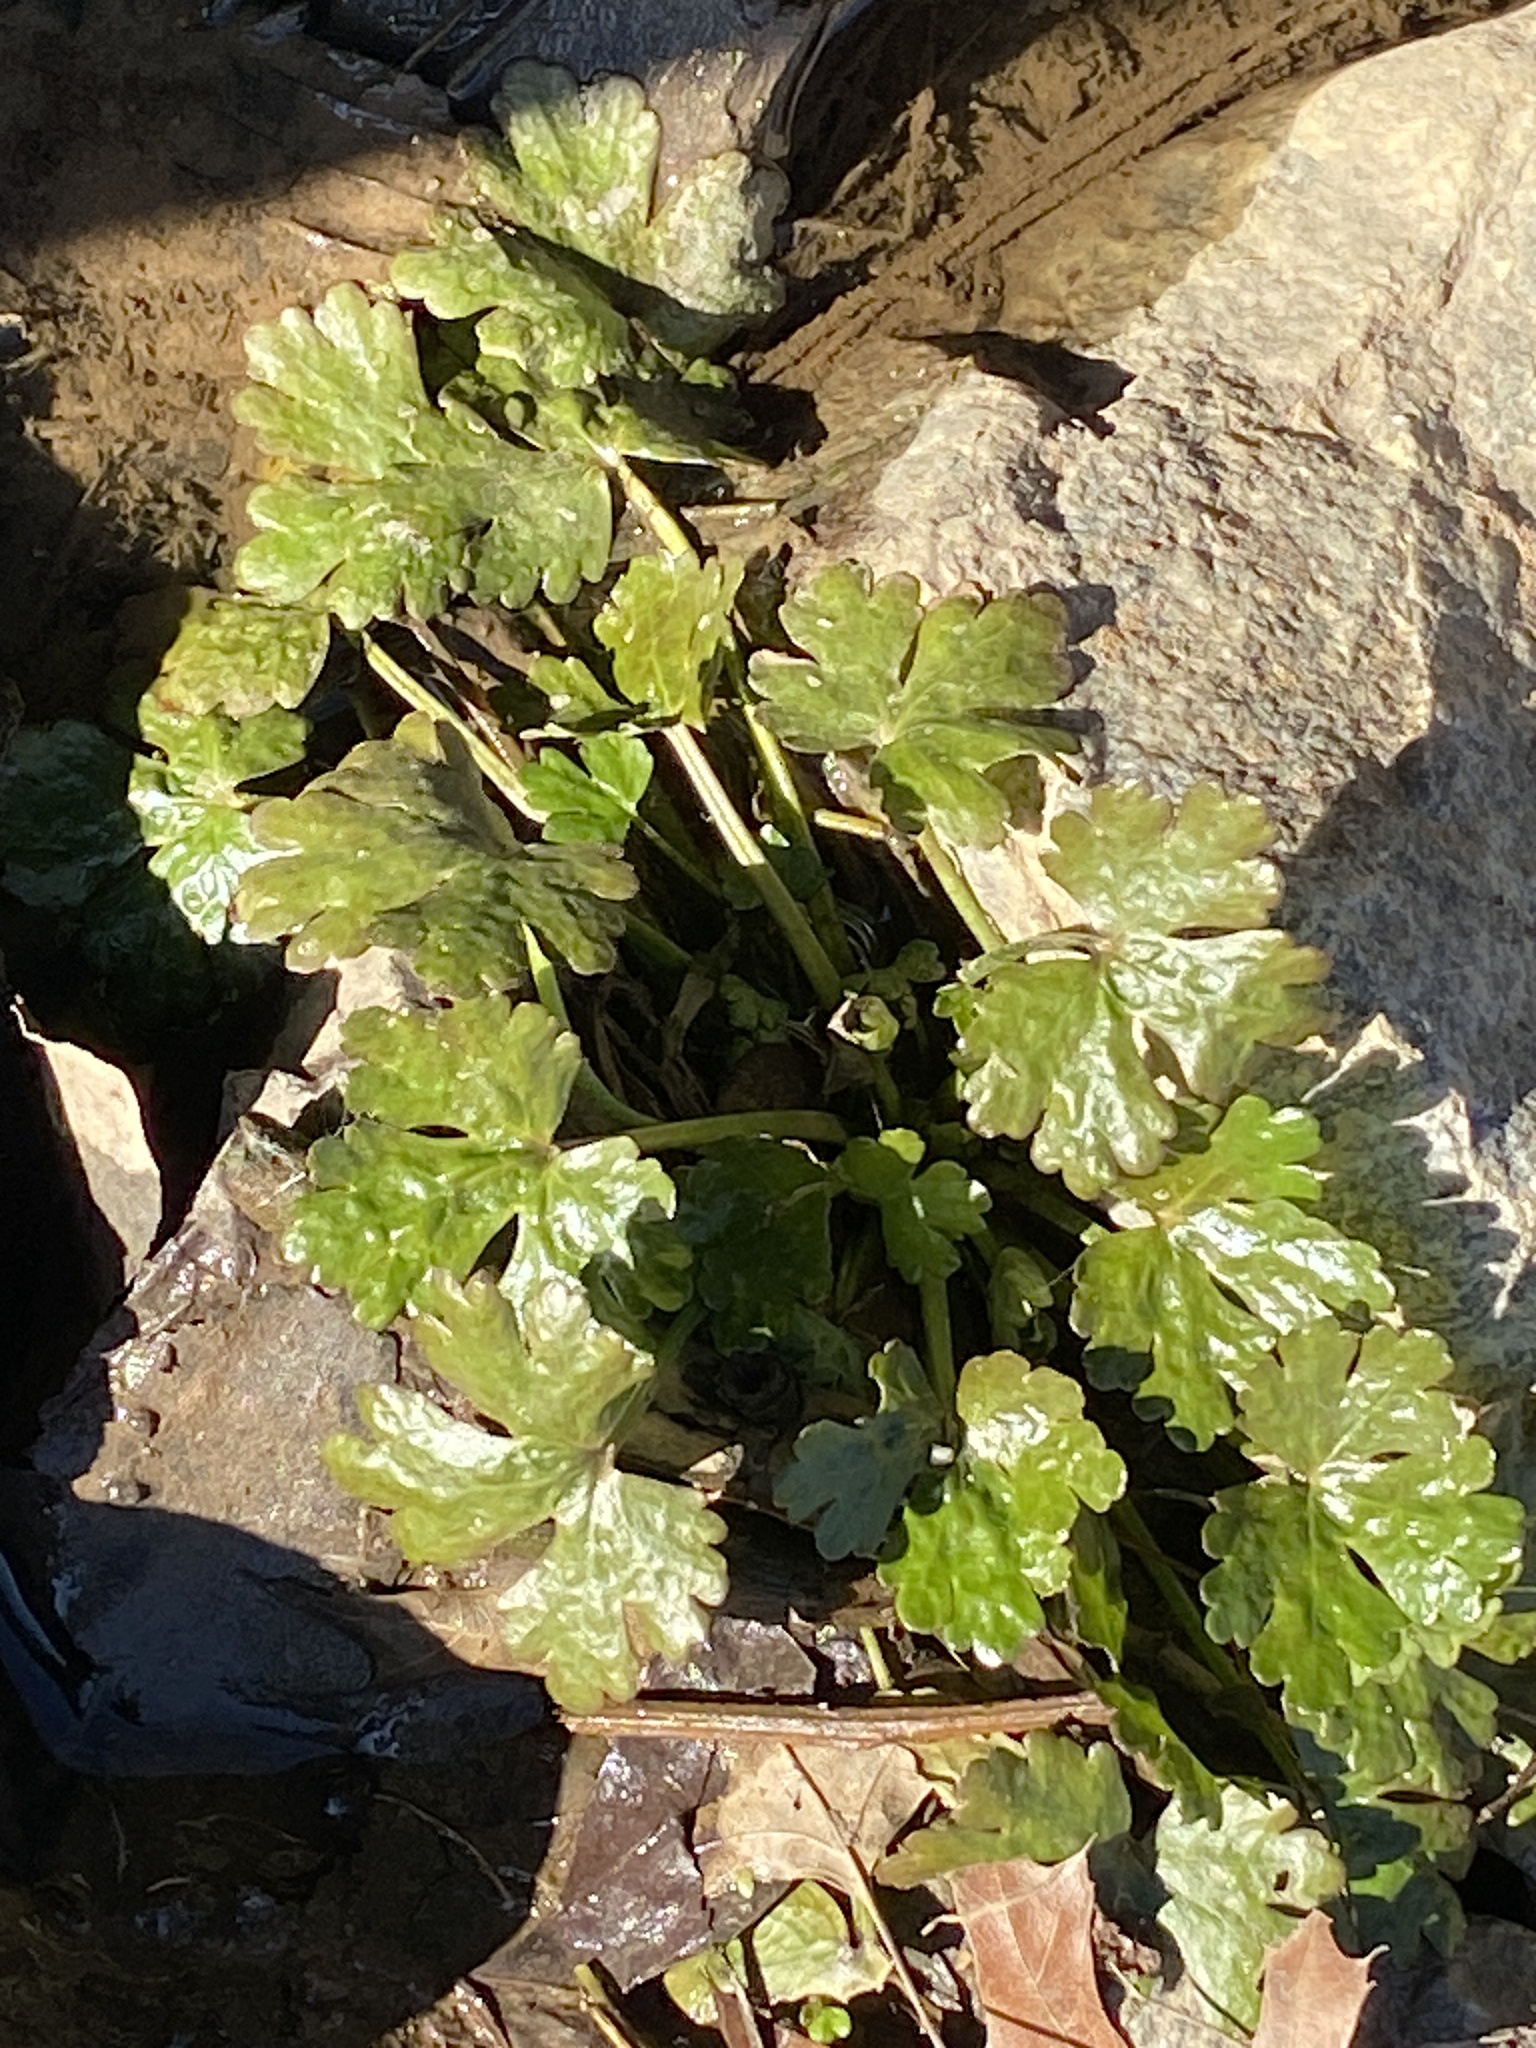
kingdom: Plantae
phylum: Tracheophyta
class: Magnoliopsida
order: Ranunculales
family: Ranunculaceae
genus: Ranunculus
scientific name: Ranunculus sceleratus
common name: Celery-leaved buttercup
